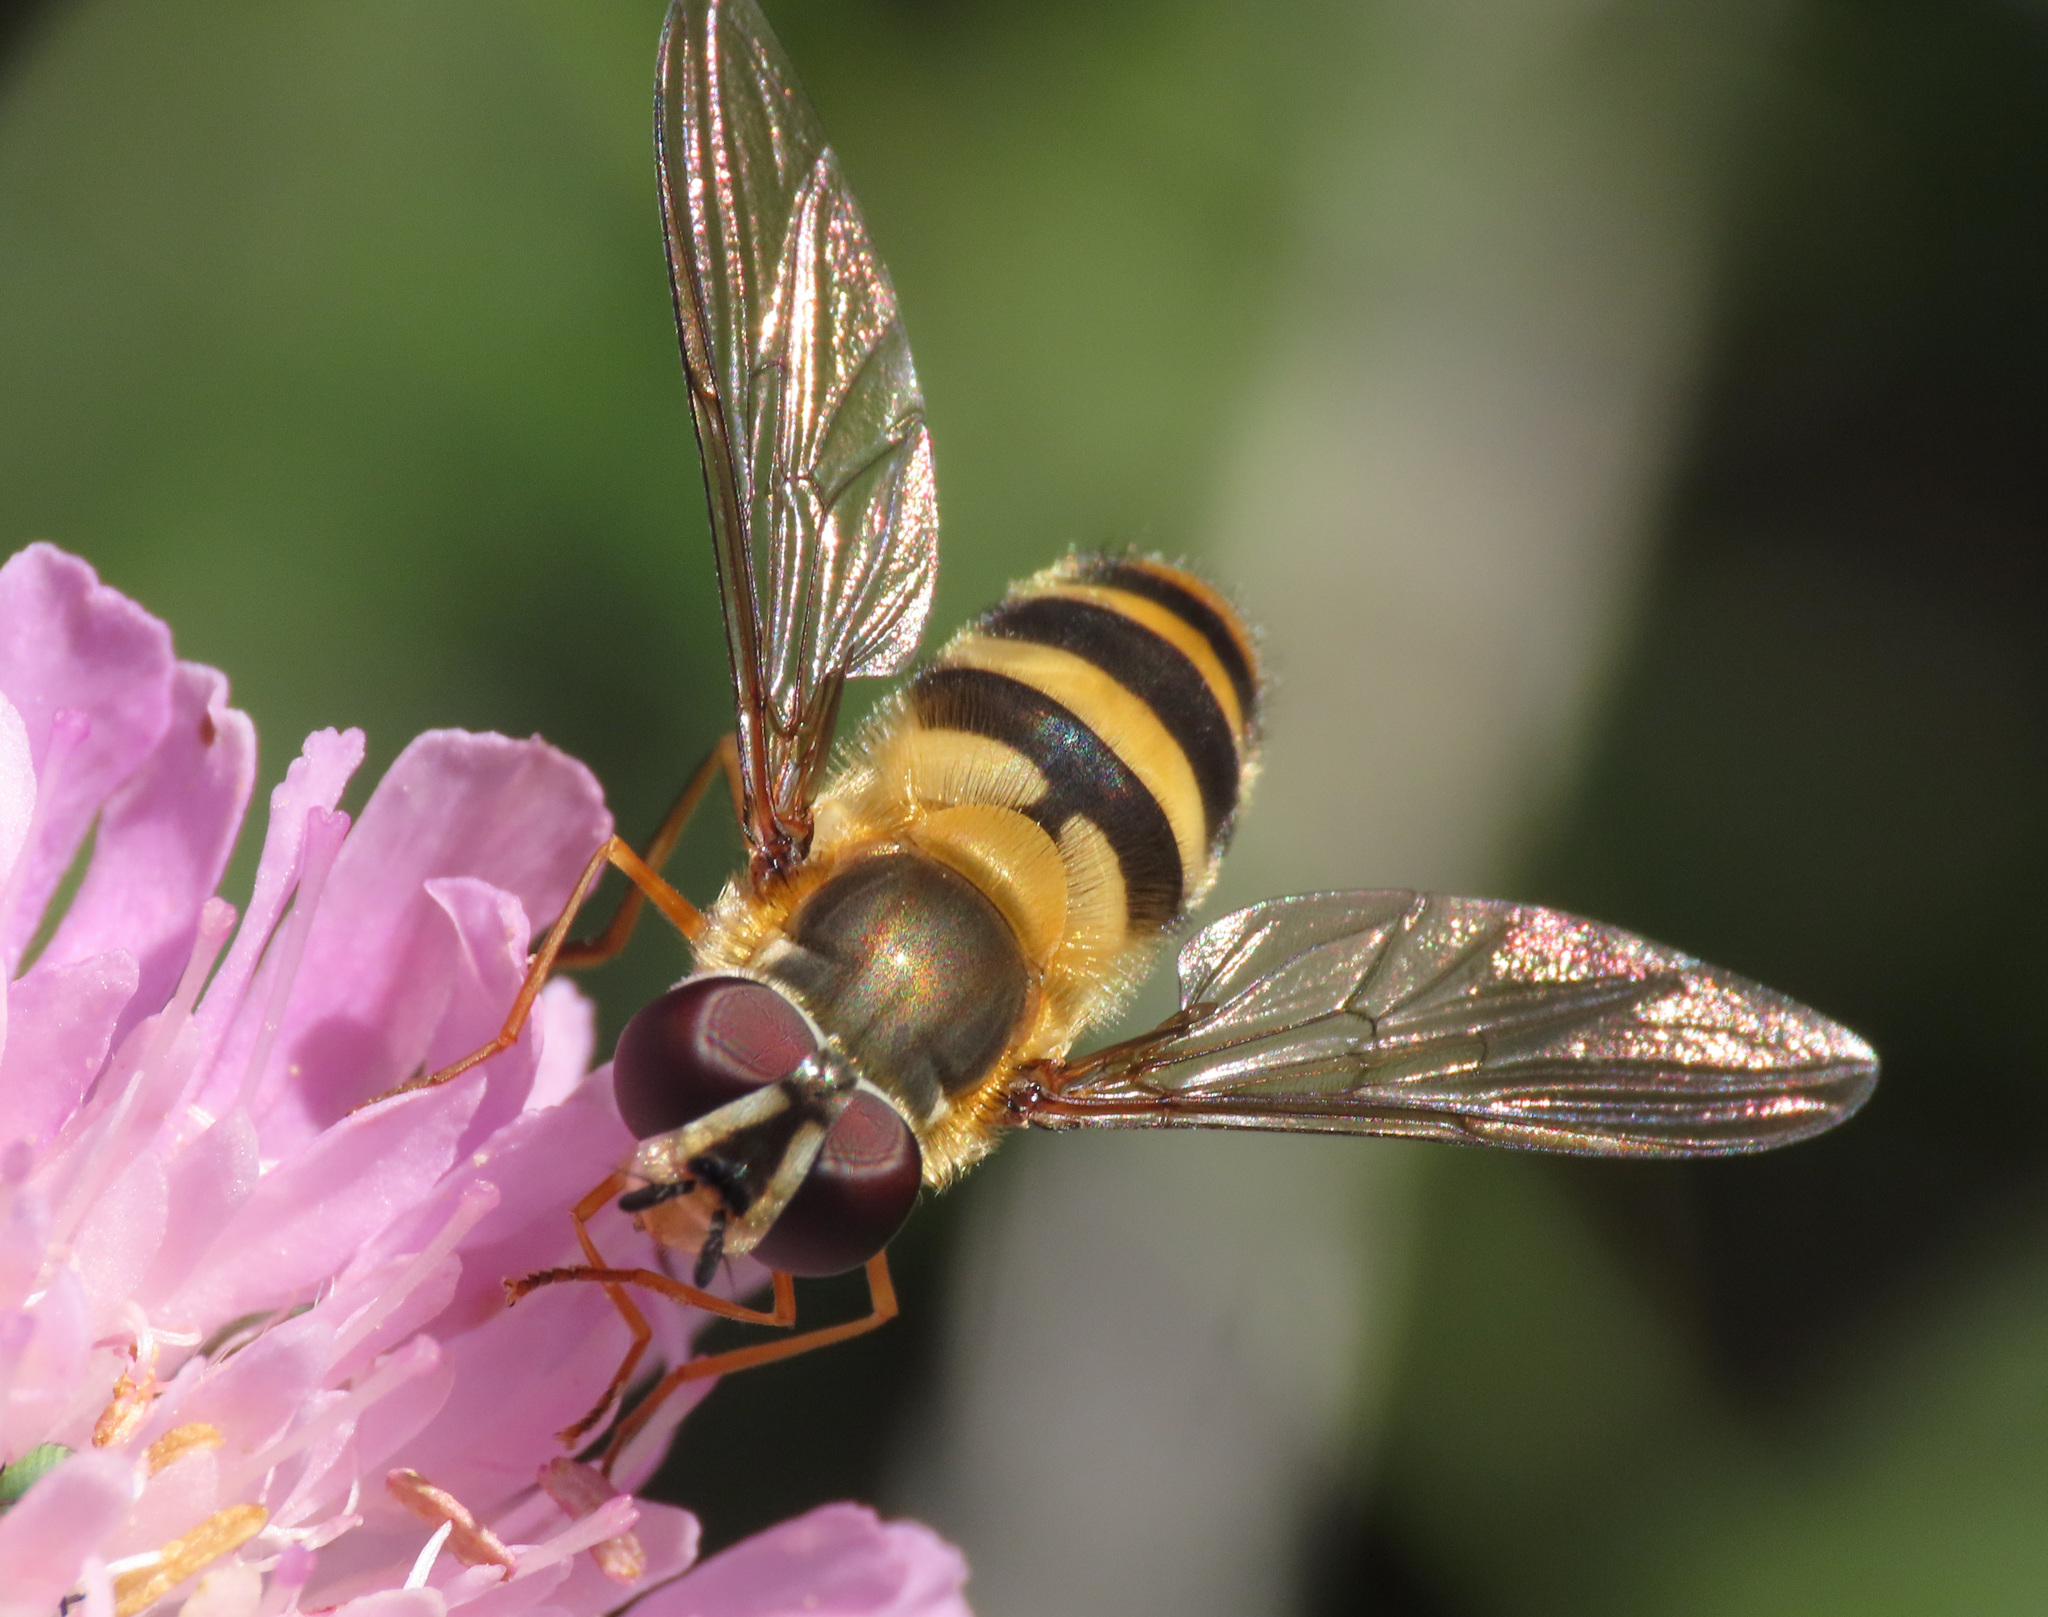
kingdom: Animalia
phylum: Arthropoda
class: Insecta
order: Diptera
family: Syrphidae
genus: Epistrophe
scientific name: Epistrophe grossulariae
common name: Black-horned smoothtail
